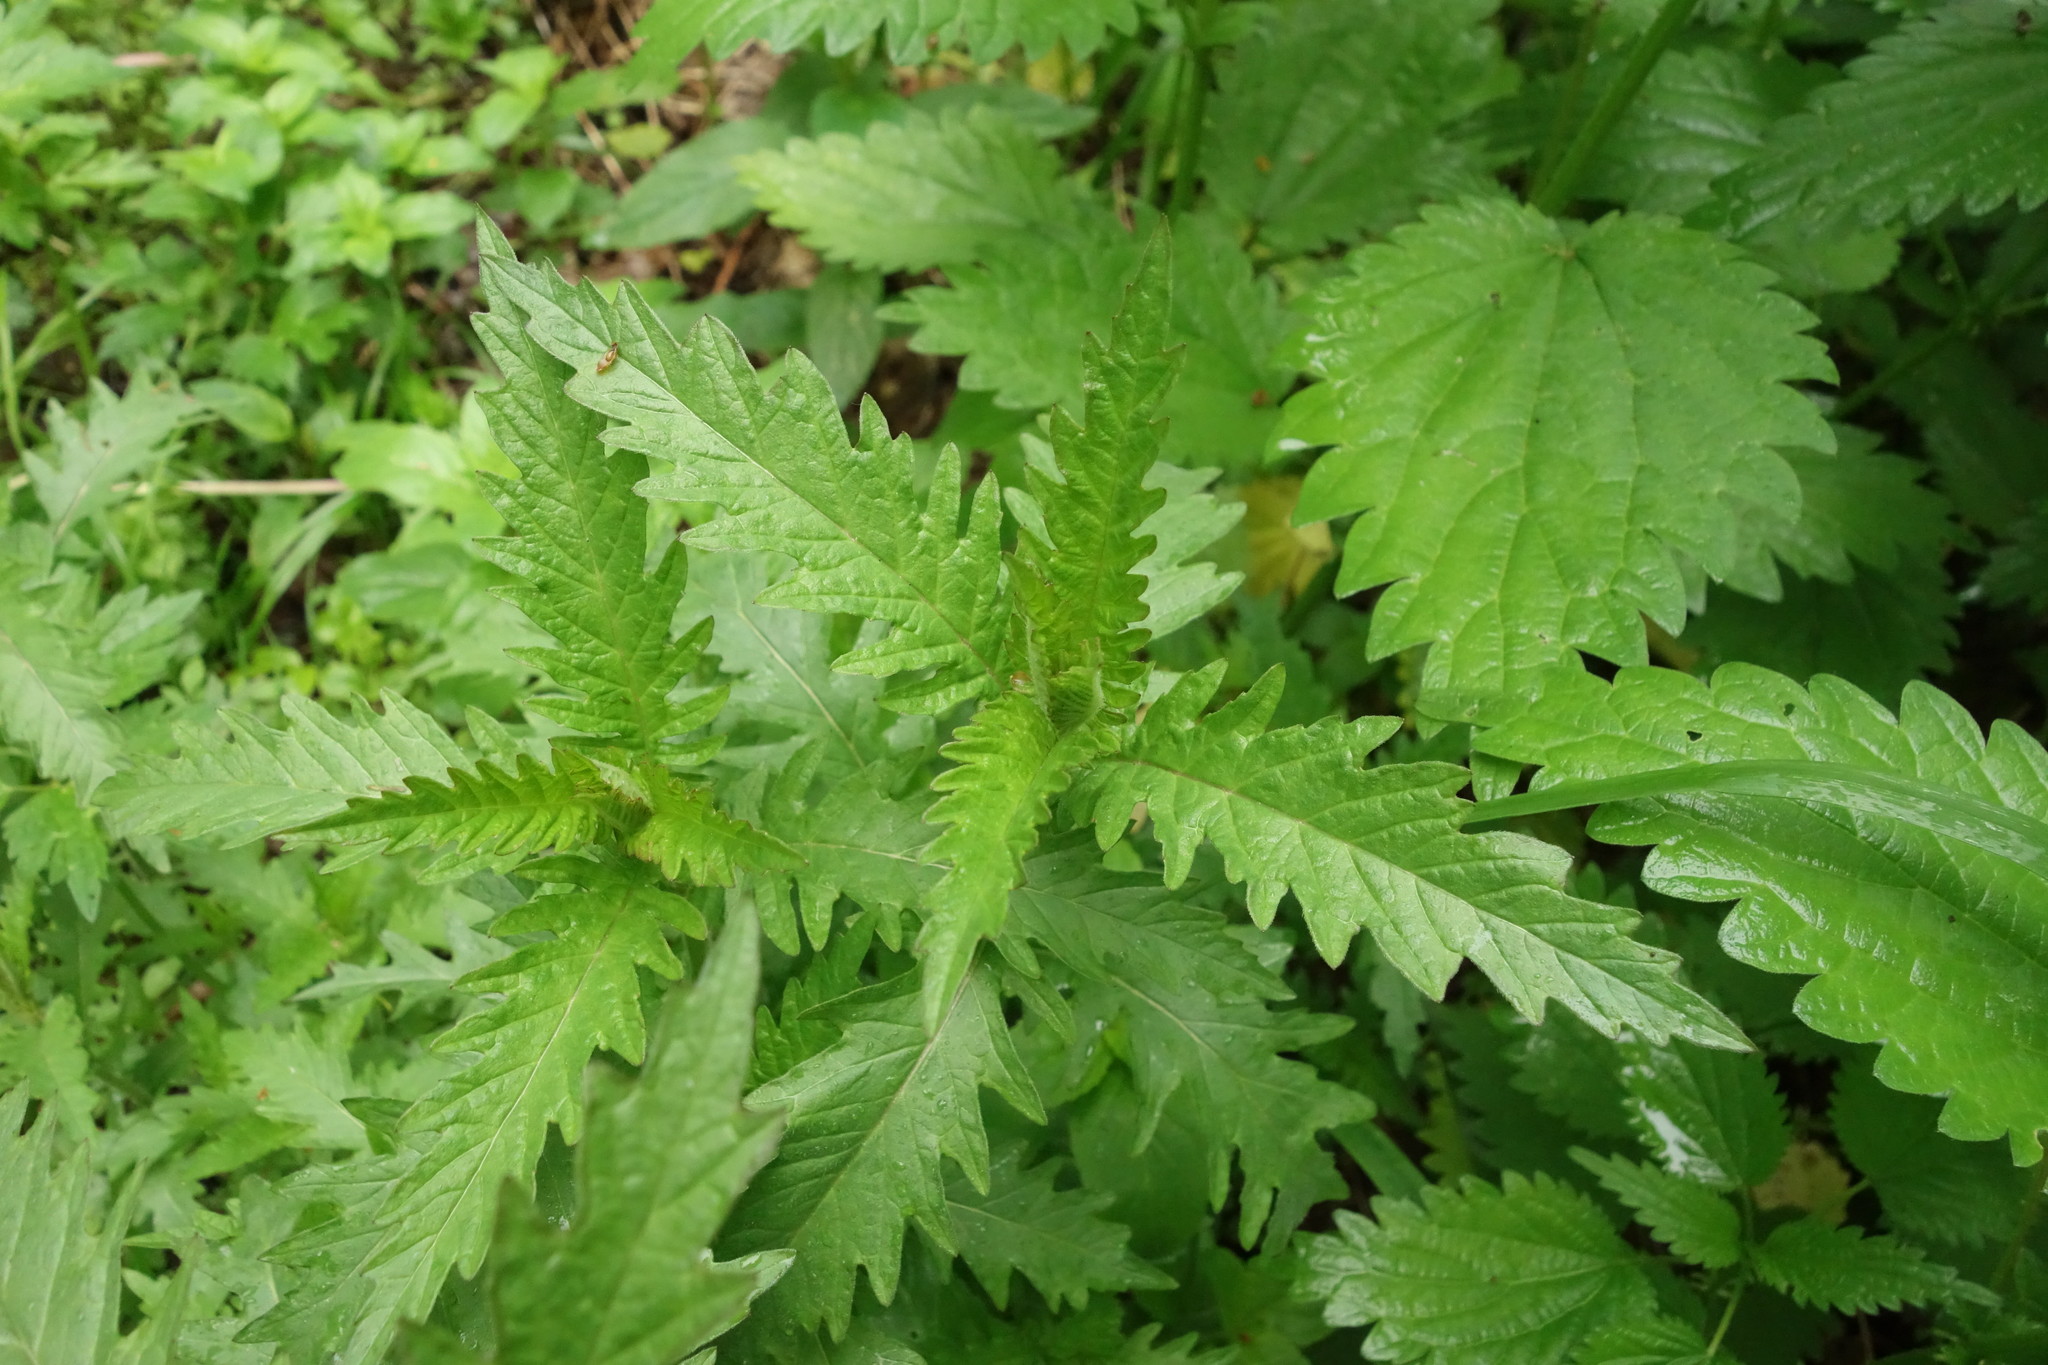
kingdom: Plantae
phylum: Tracheophyta
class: Magnoliopsida
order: Lamiales
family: Lamiaceae
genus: Lycopus
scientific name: Lycopus europaeus
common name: European bugleweed
